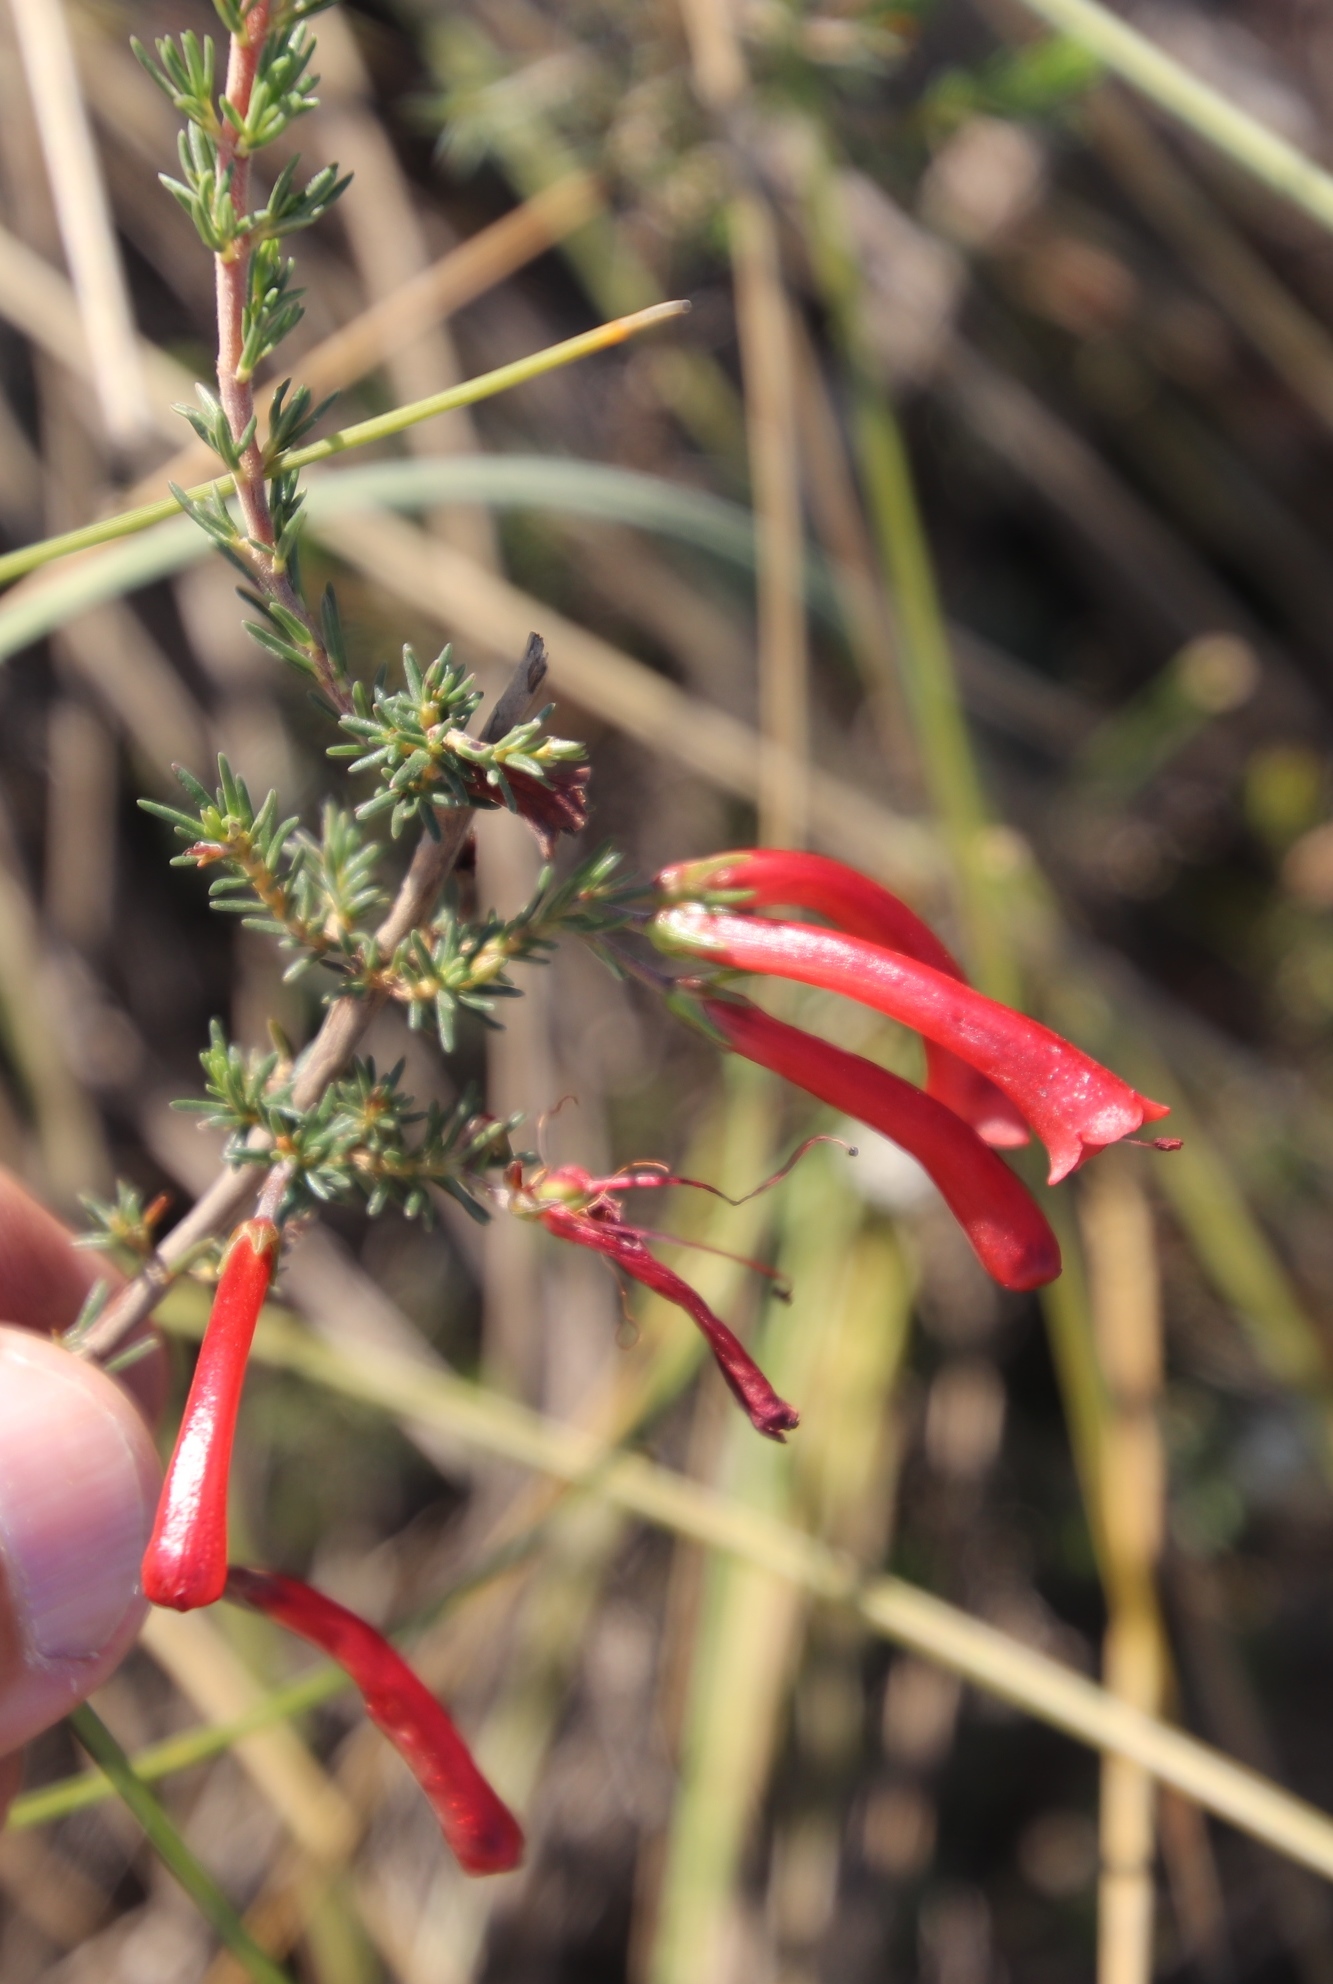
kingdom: Plantae
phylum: Tracheophyta
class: Magnoliopsida
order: Ericales
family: Ericaceae
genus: Erica
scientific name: Erica cruenta
